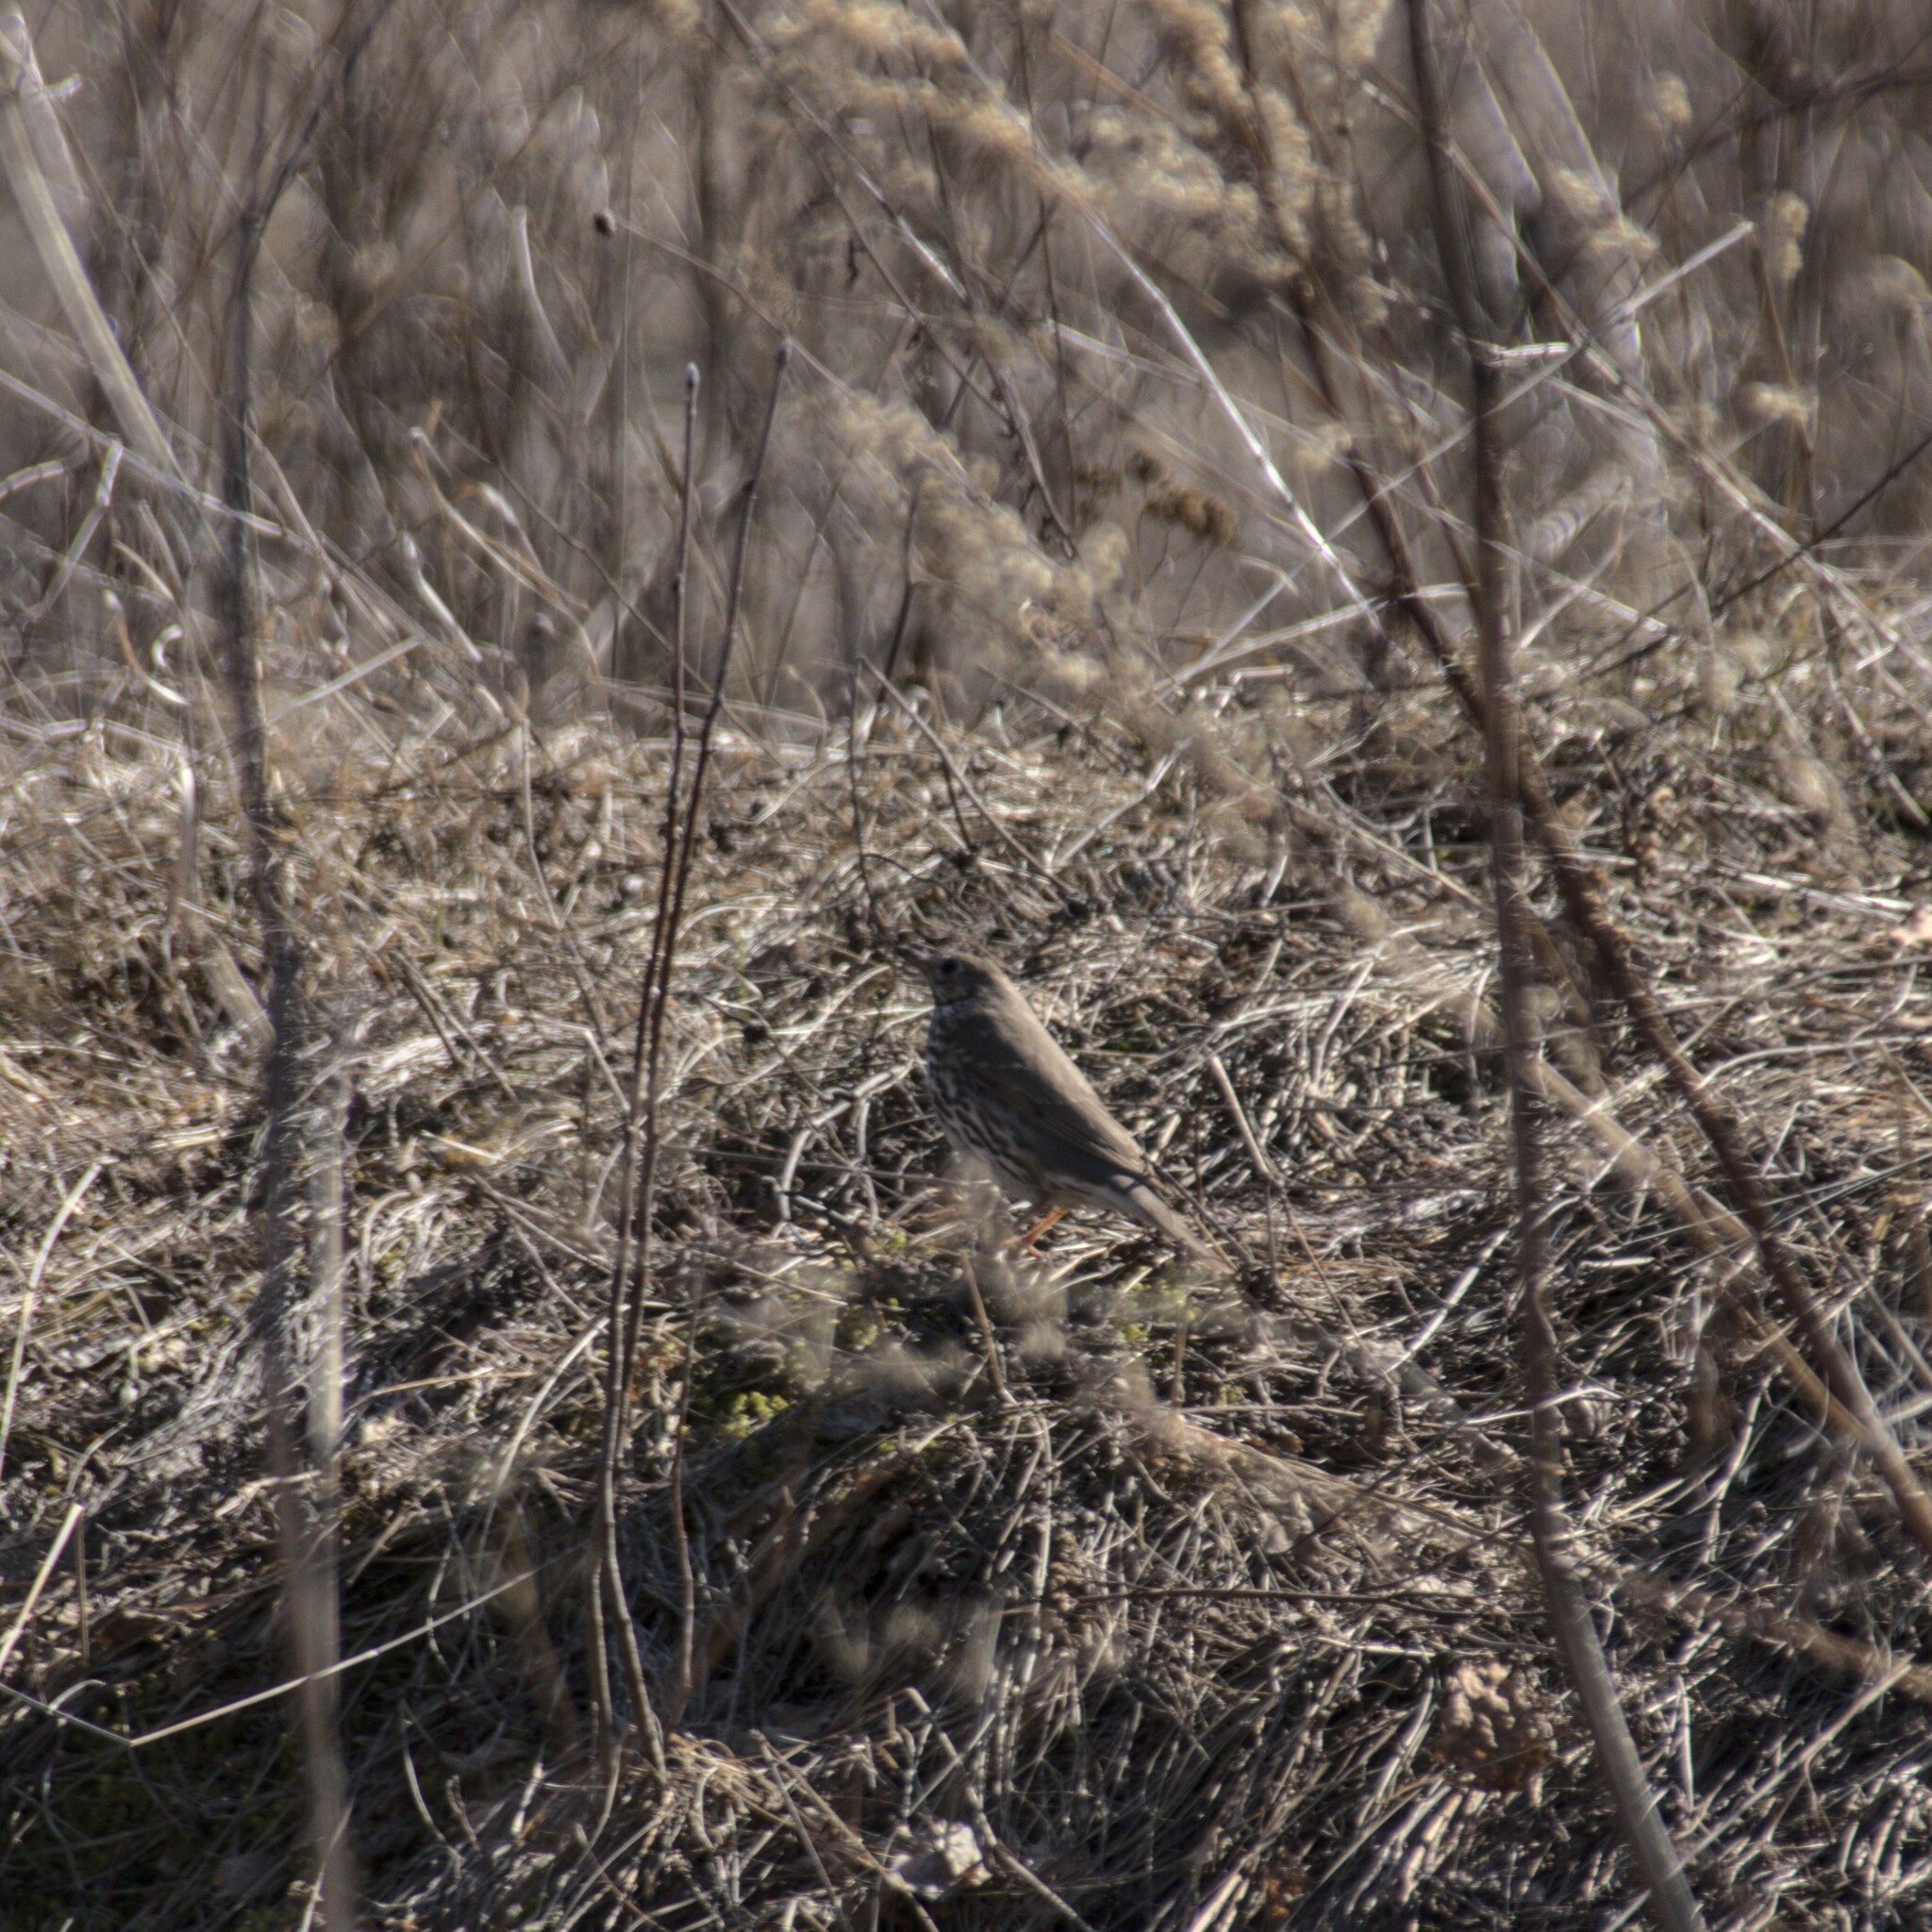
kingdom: Animalia
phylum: Chordata
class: Aves
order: Passeriformes
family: Turdidae
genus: Turdus
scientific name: Turdus philomelos
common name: Song thrush
